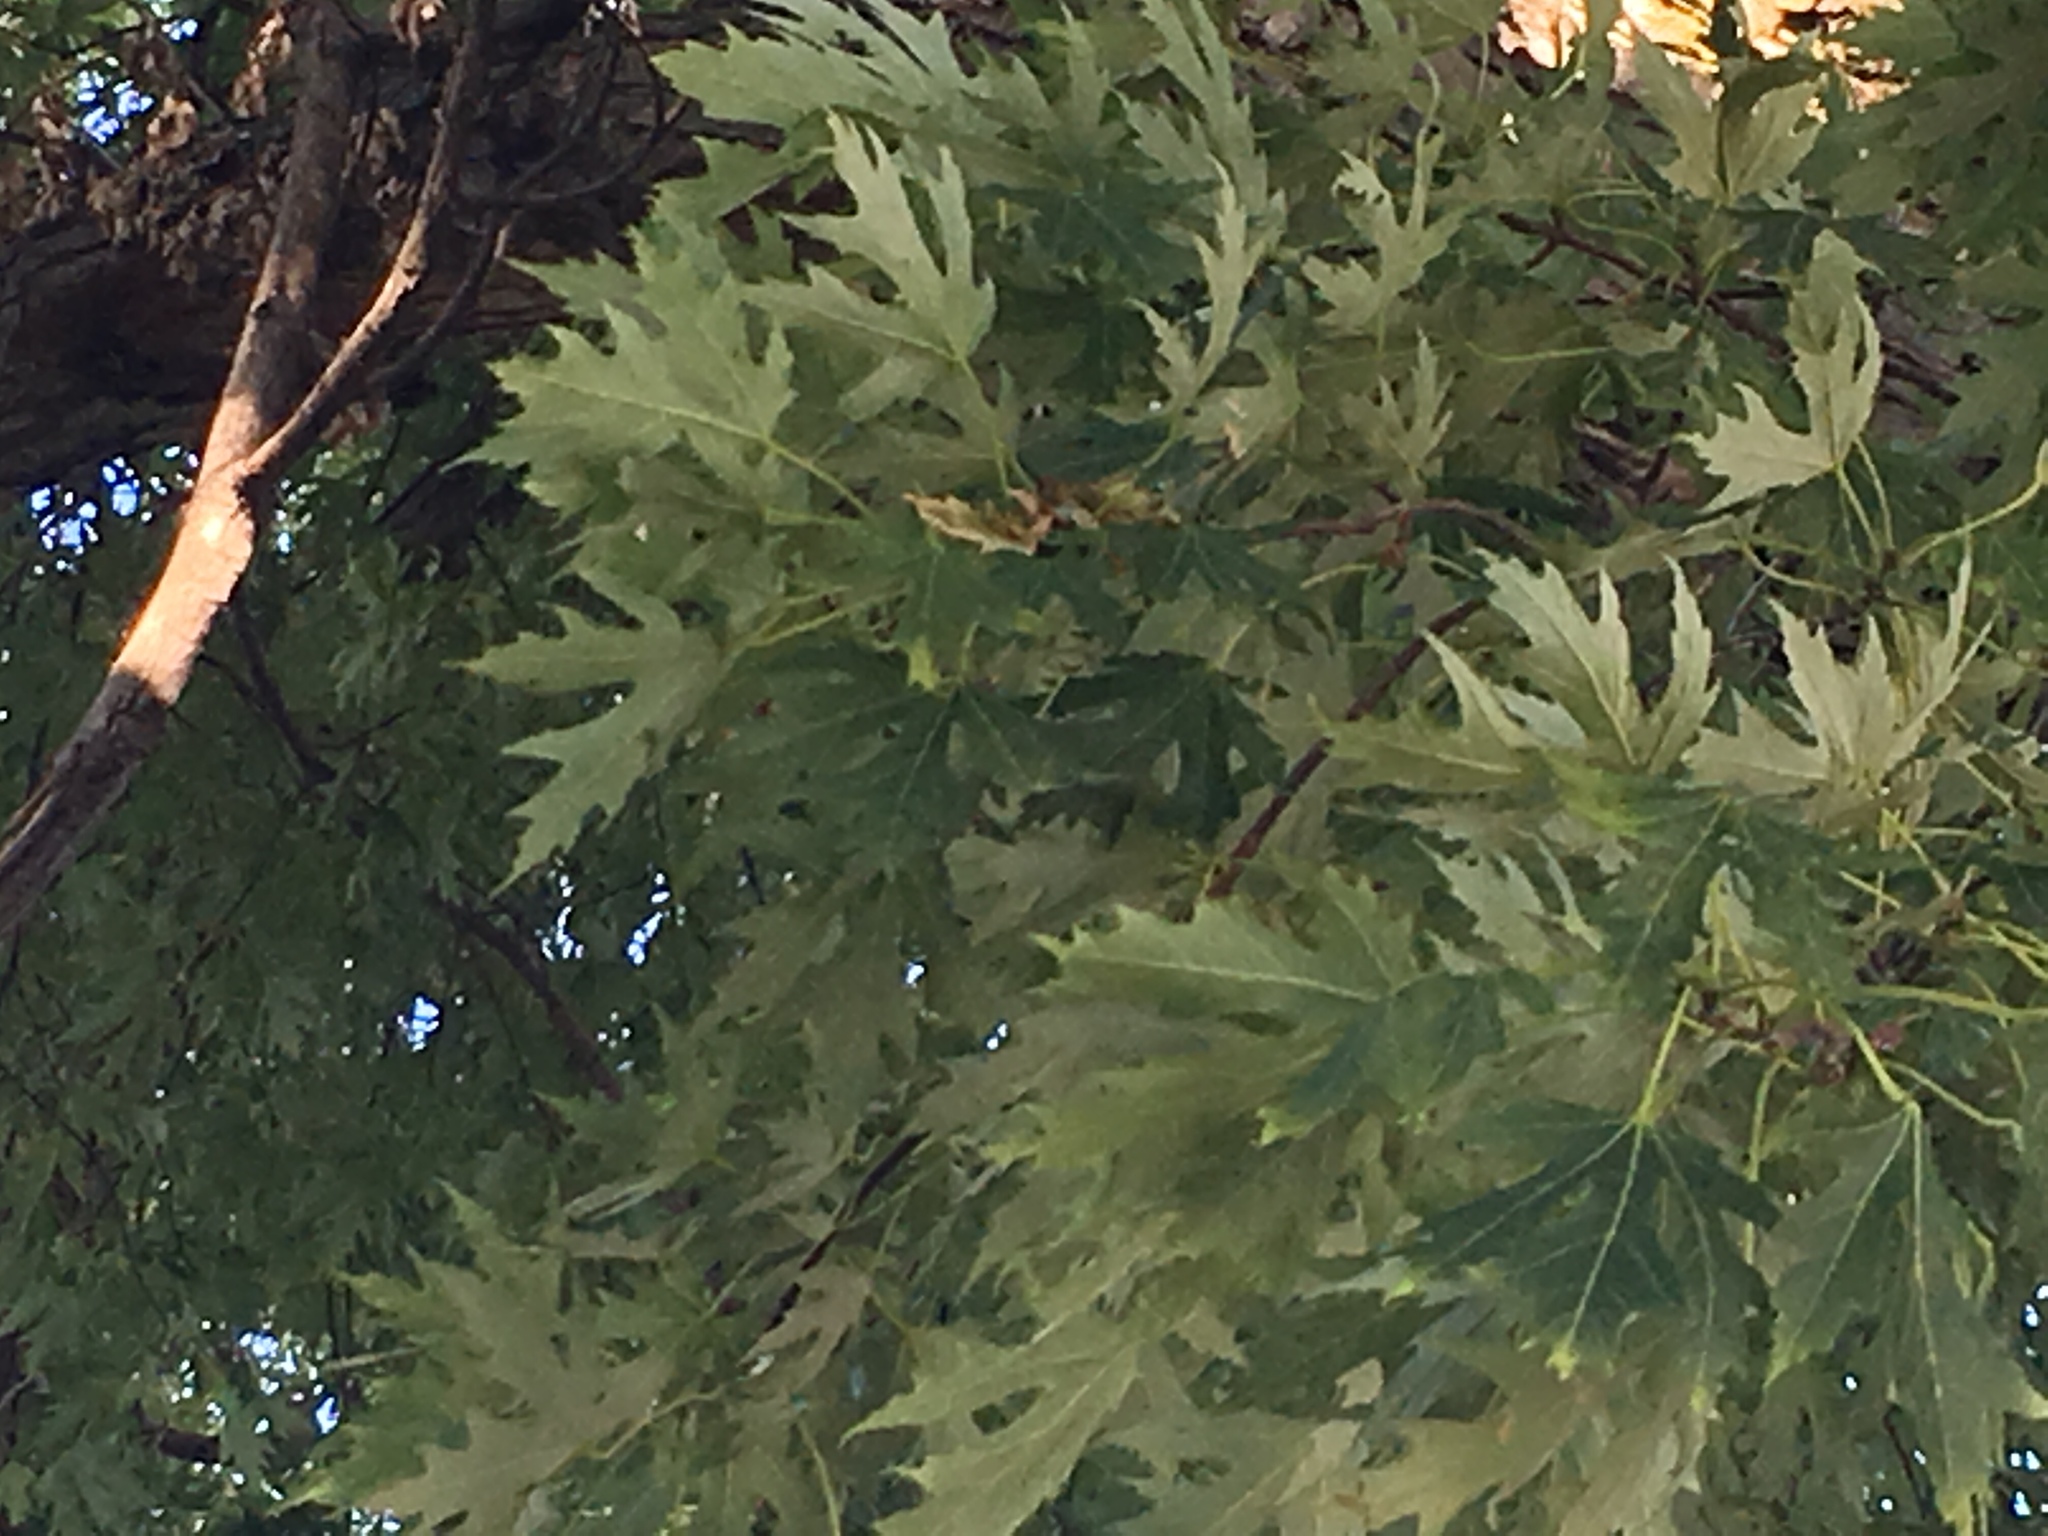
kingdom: Plantae
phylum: Tracheophyta
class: Magnoliopsida
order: Sapindales
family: Sapindaceae
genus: Acer
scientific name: Acer saccharinum
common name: Silver maple
